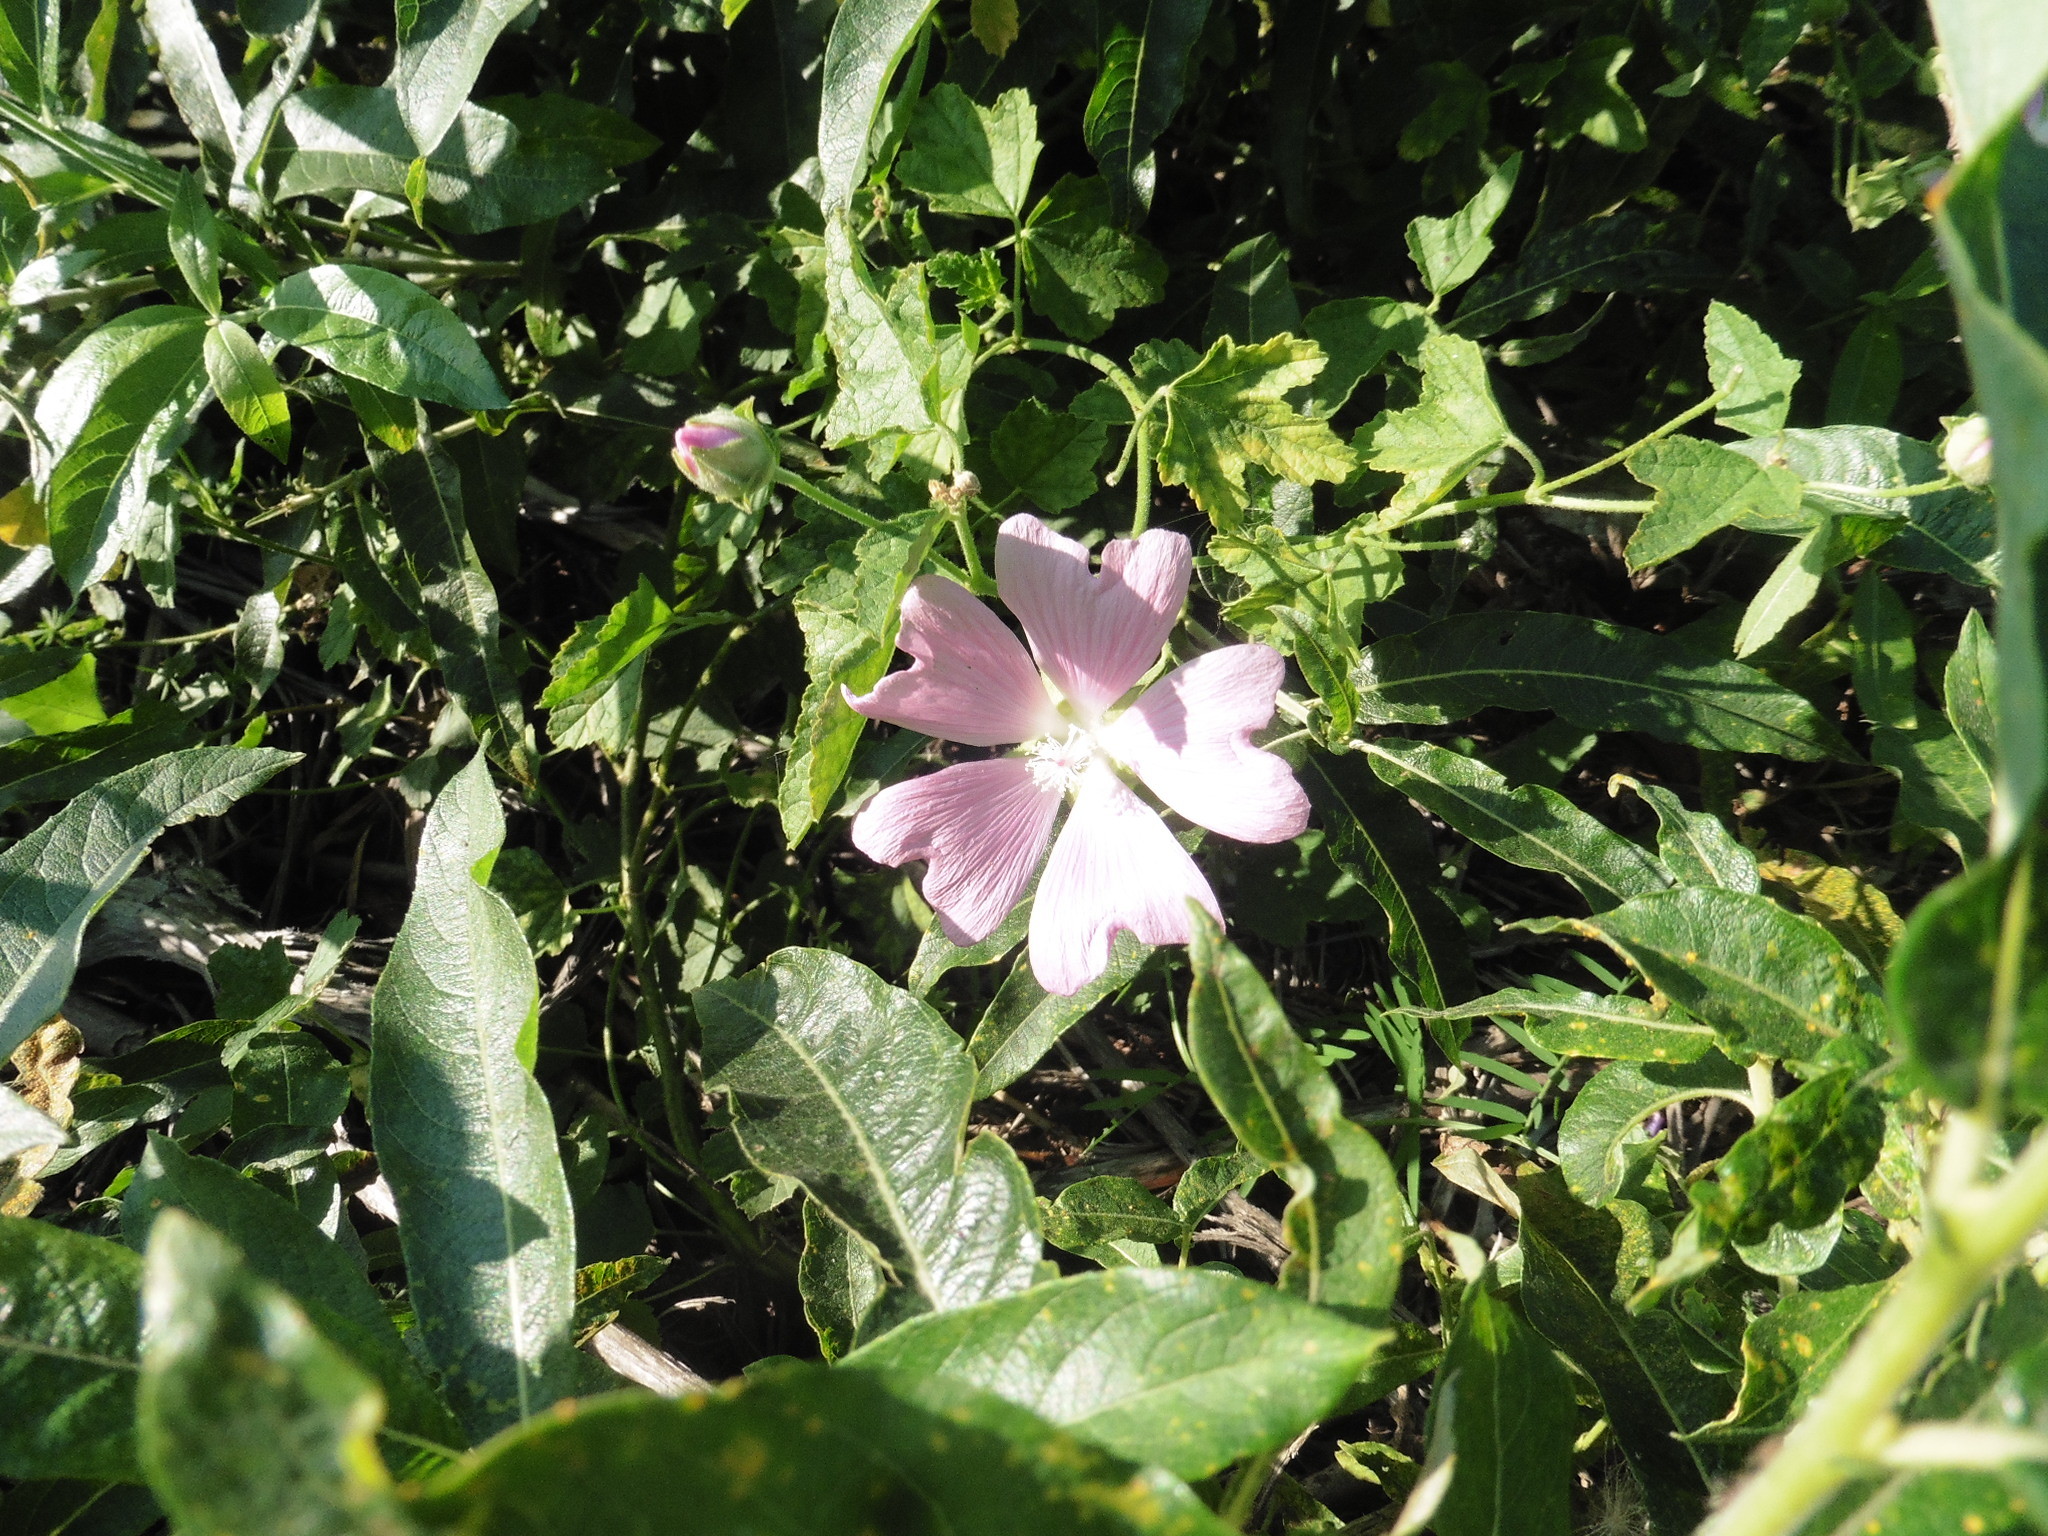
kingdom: Plantae
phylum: Tracheophyta
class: Magnoliopsida
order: Malvales
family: Malvaceae
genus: Malva
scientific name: Malva thuringiaca
